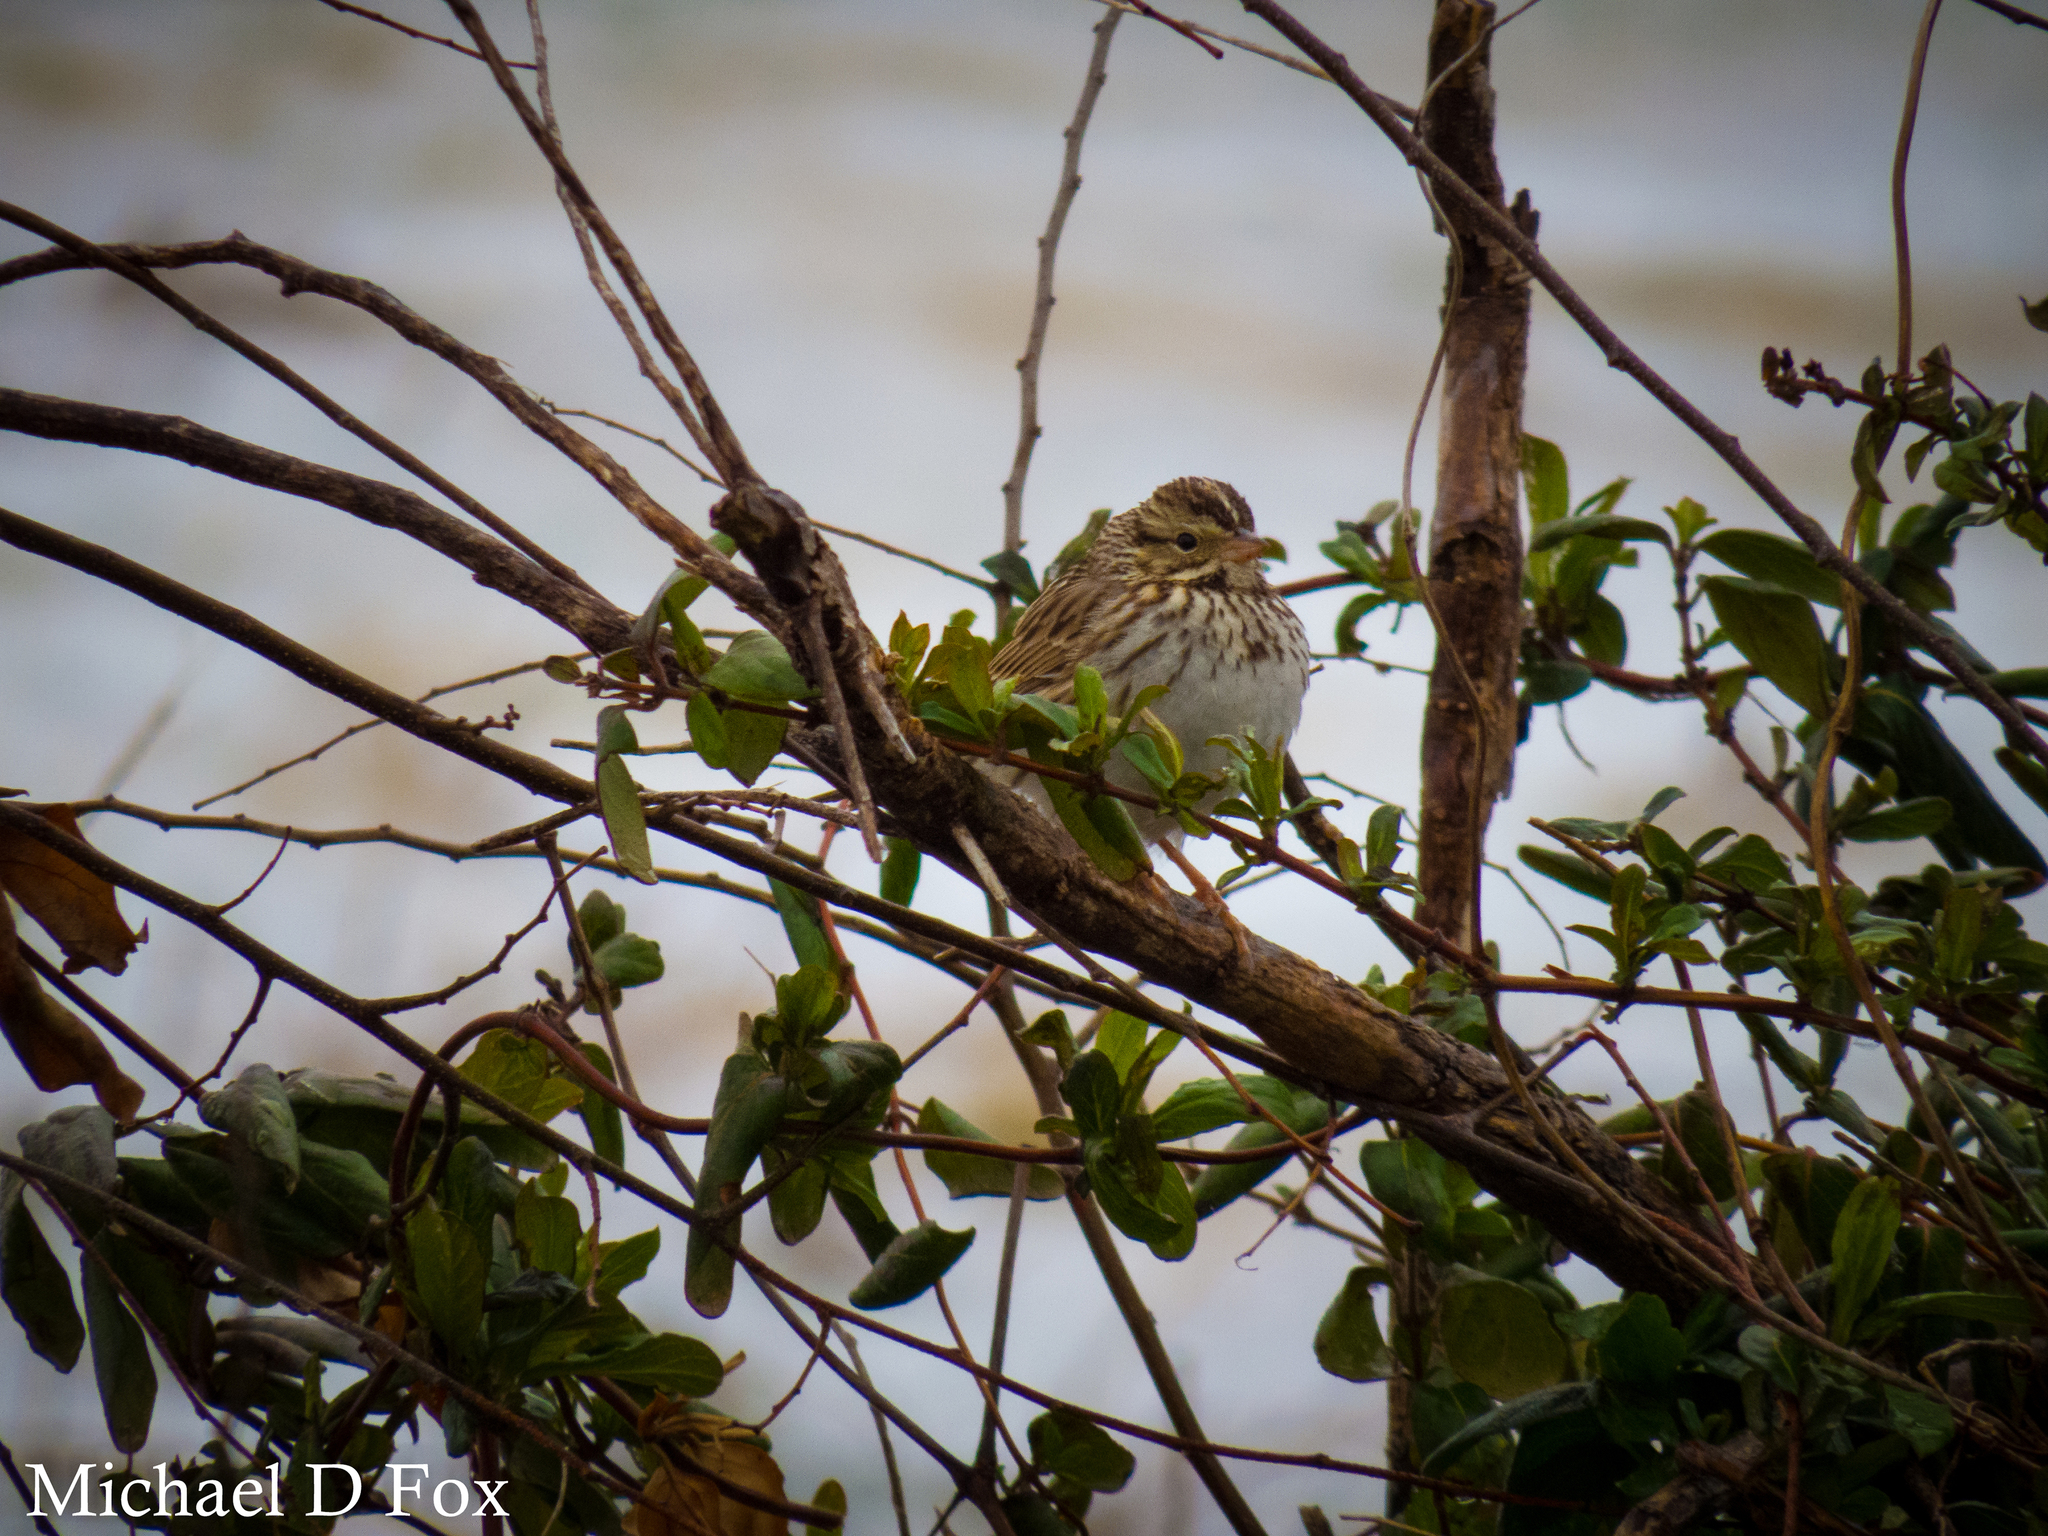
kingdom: Animalia
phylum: Chordata
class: Aves
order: Passeriformes
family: Passerellidae
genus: Passerculus
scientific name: Passerculus sandwichensis
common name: Savannah sparrow
